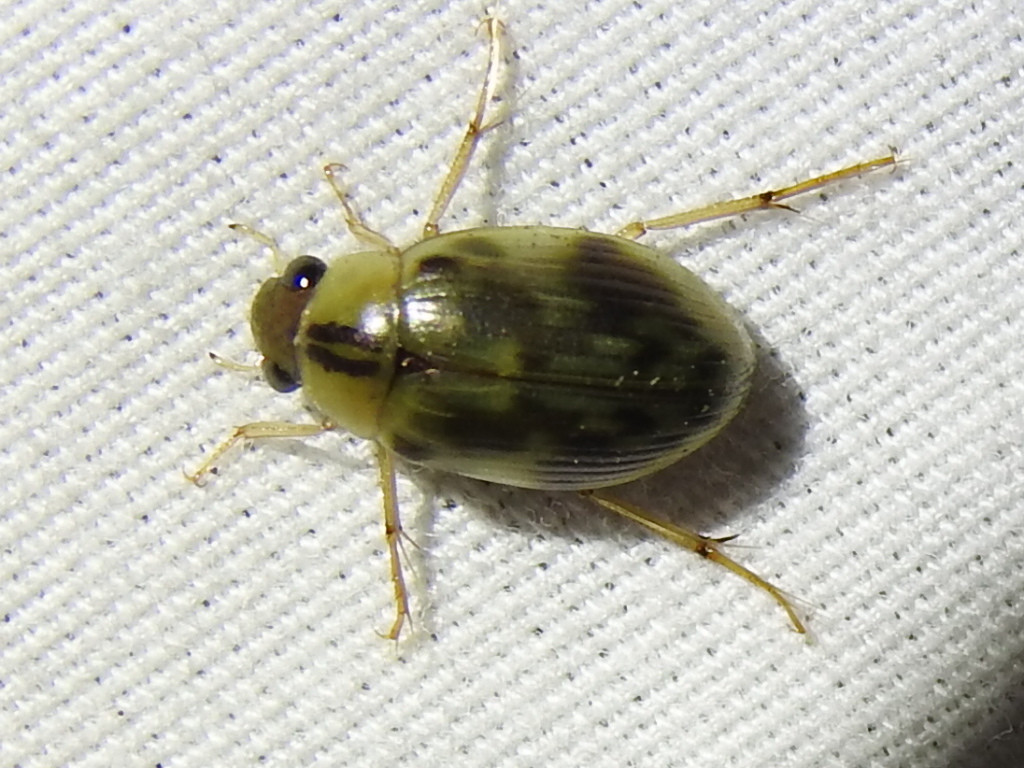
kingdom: Animalia
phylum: Arthropoda
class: Insecta
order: Coleoptera
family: Hydrophilidae
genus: Berosus
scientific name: Berosus miles
